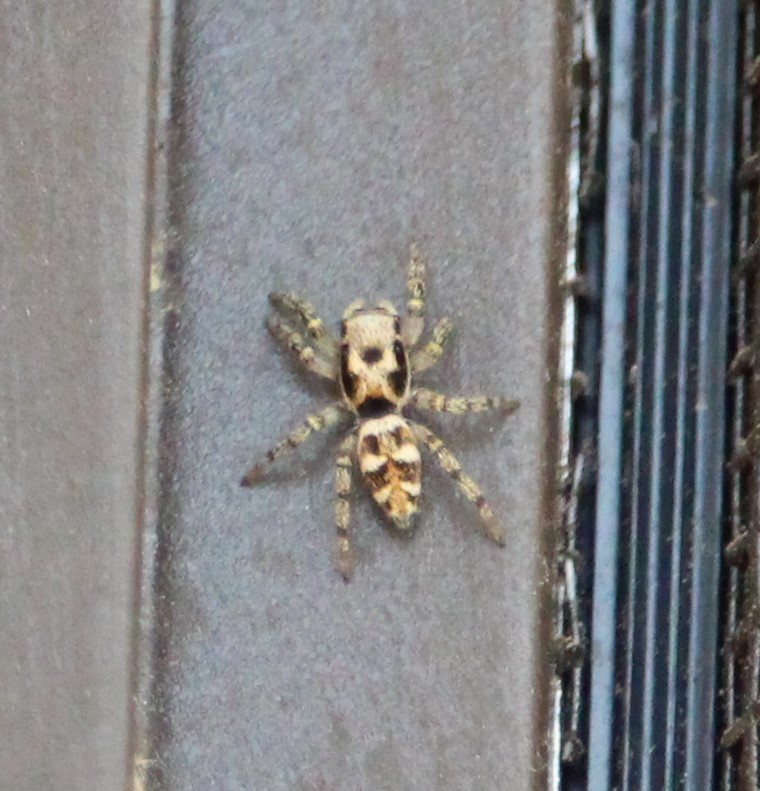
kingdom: Animalia
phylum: Arthropoda
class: Arachnida
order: Araneae
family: Salticidae
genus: Salticus
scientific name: Salticus scenicus
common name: Zebra jumper
